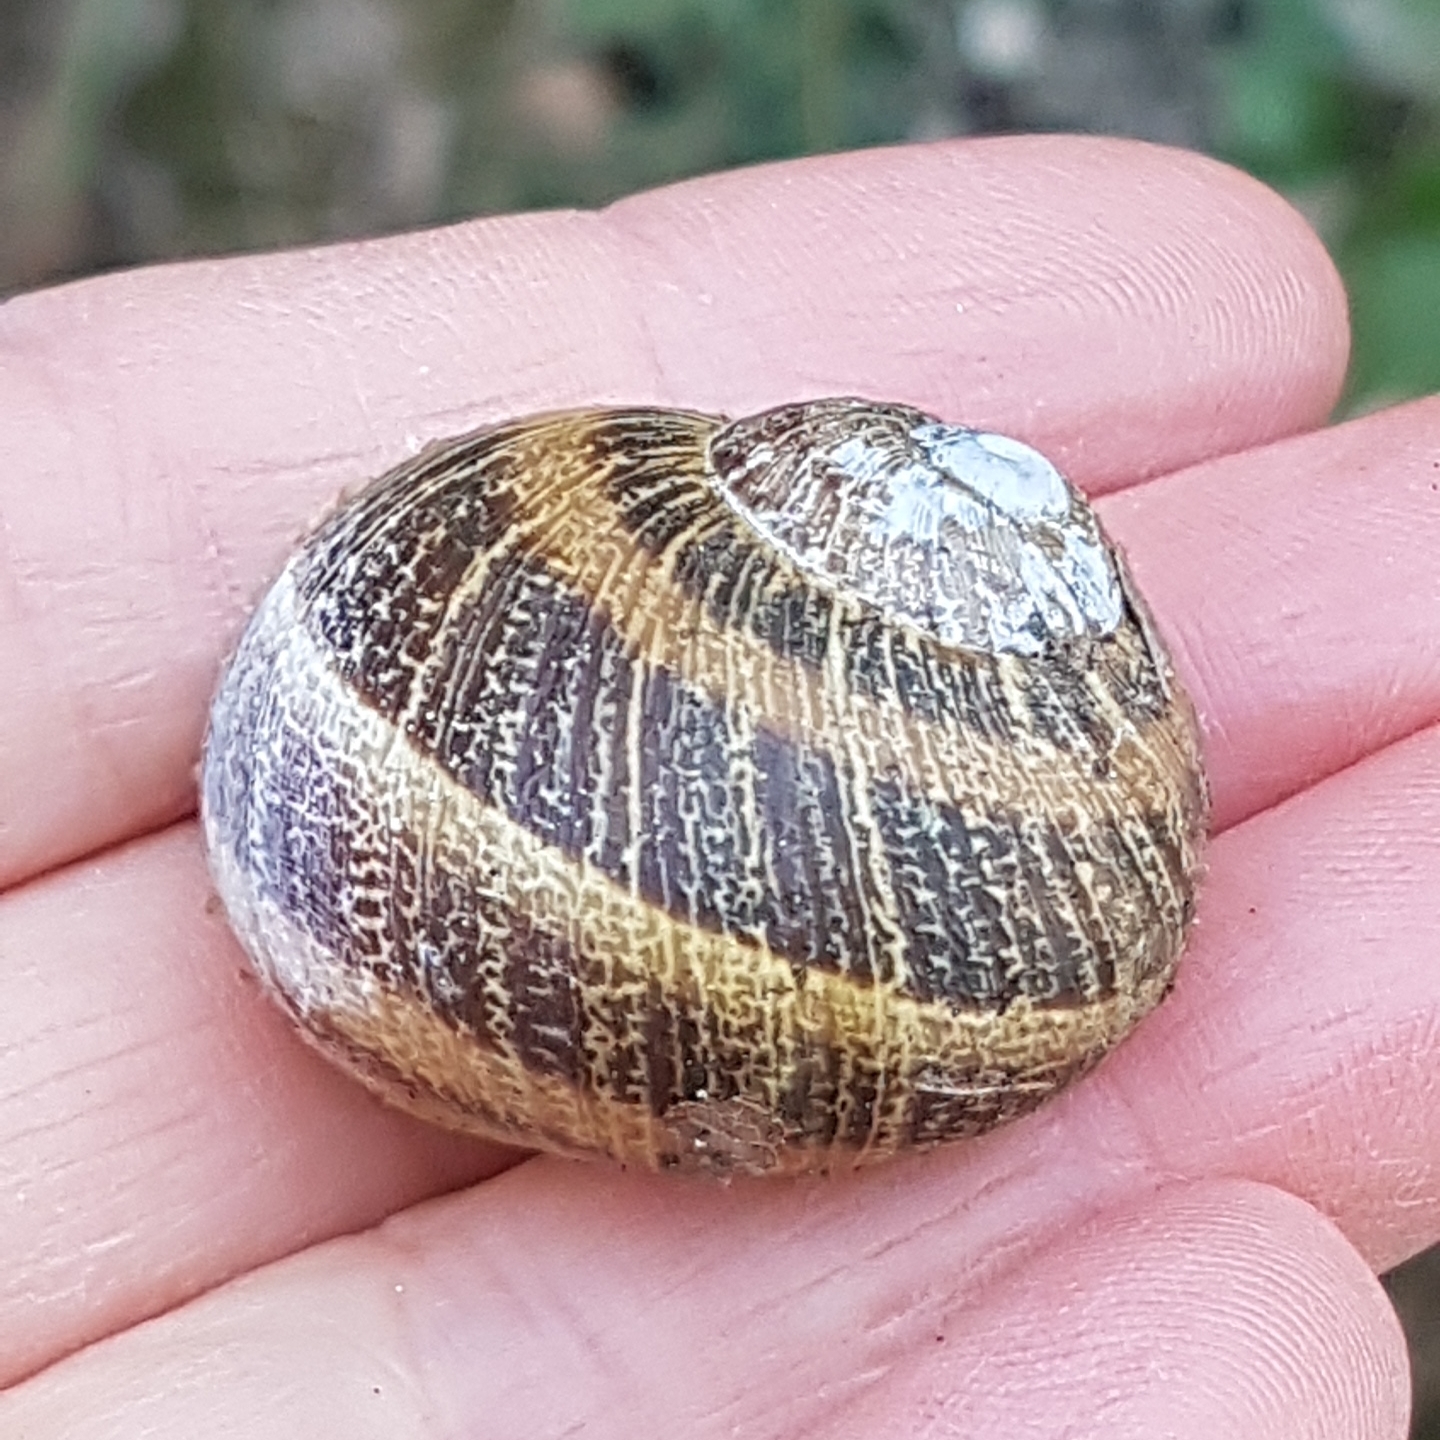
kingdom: Animalia
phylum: Mollusca
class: Gastropoda
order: Stylommatophora
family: Helicidae
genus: Cornu
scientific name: Cornu aspersum
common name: Brown garden snail
